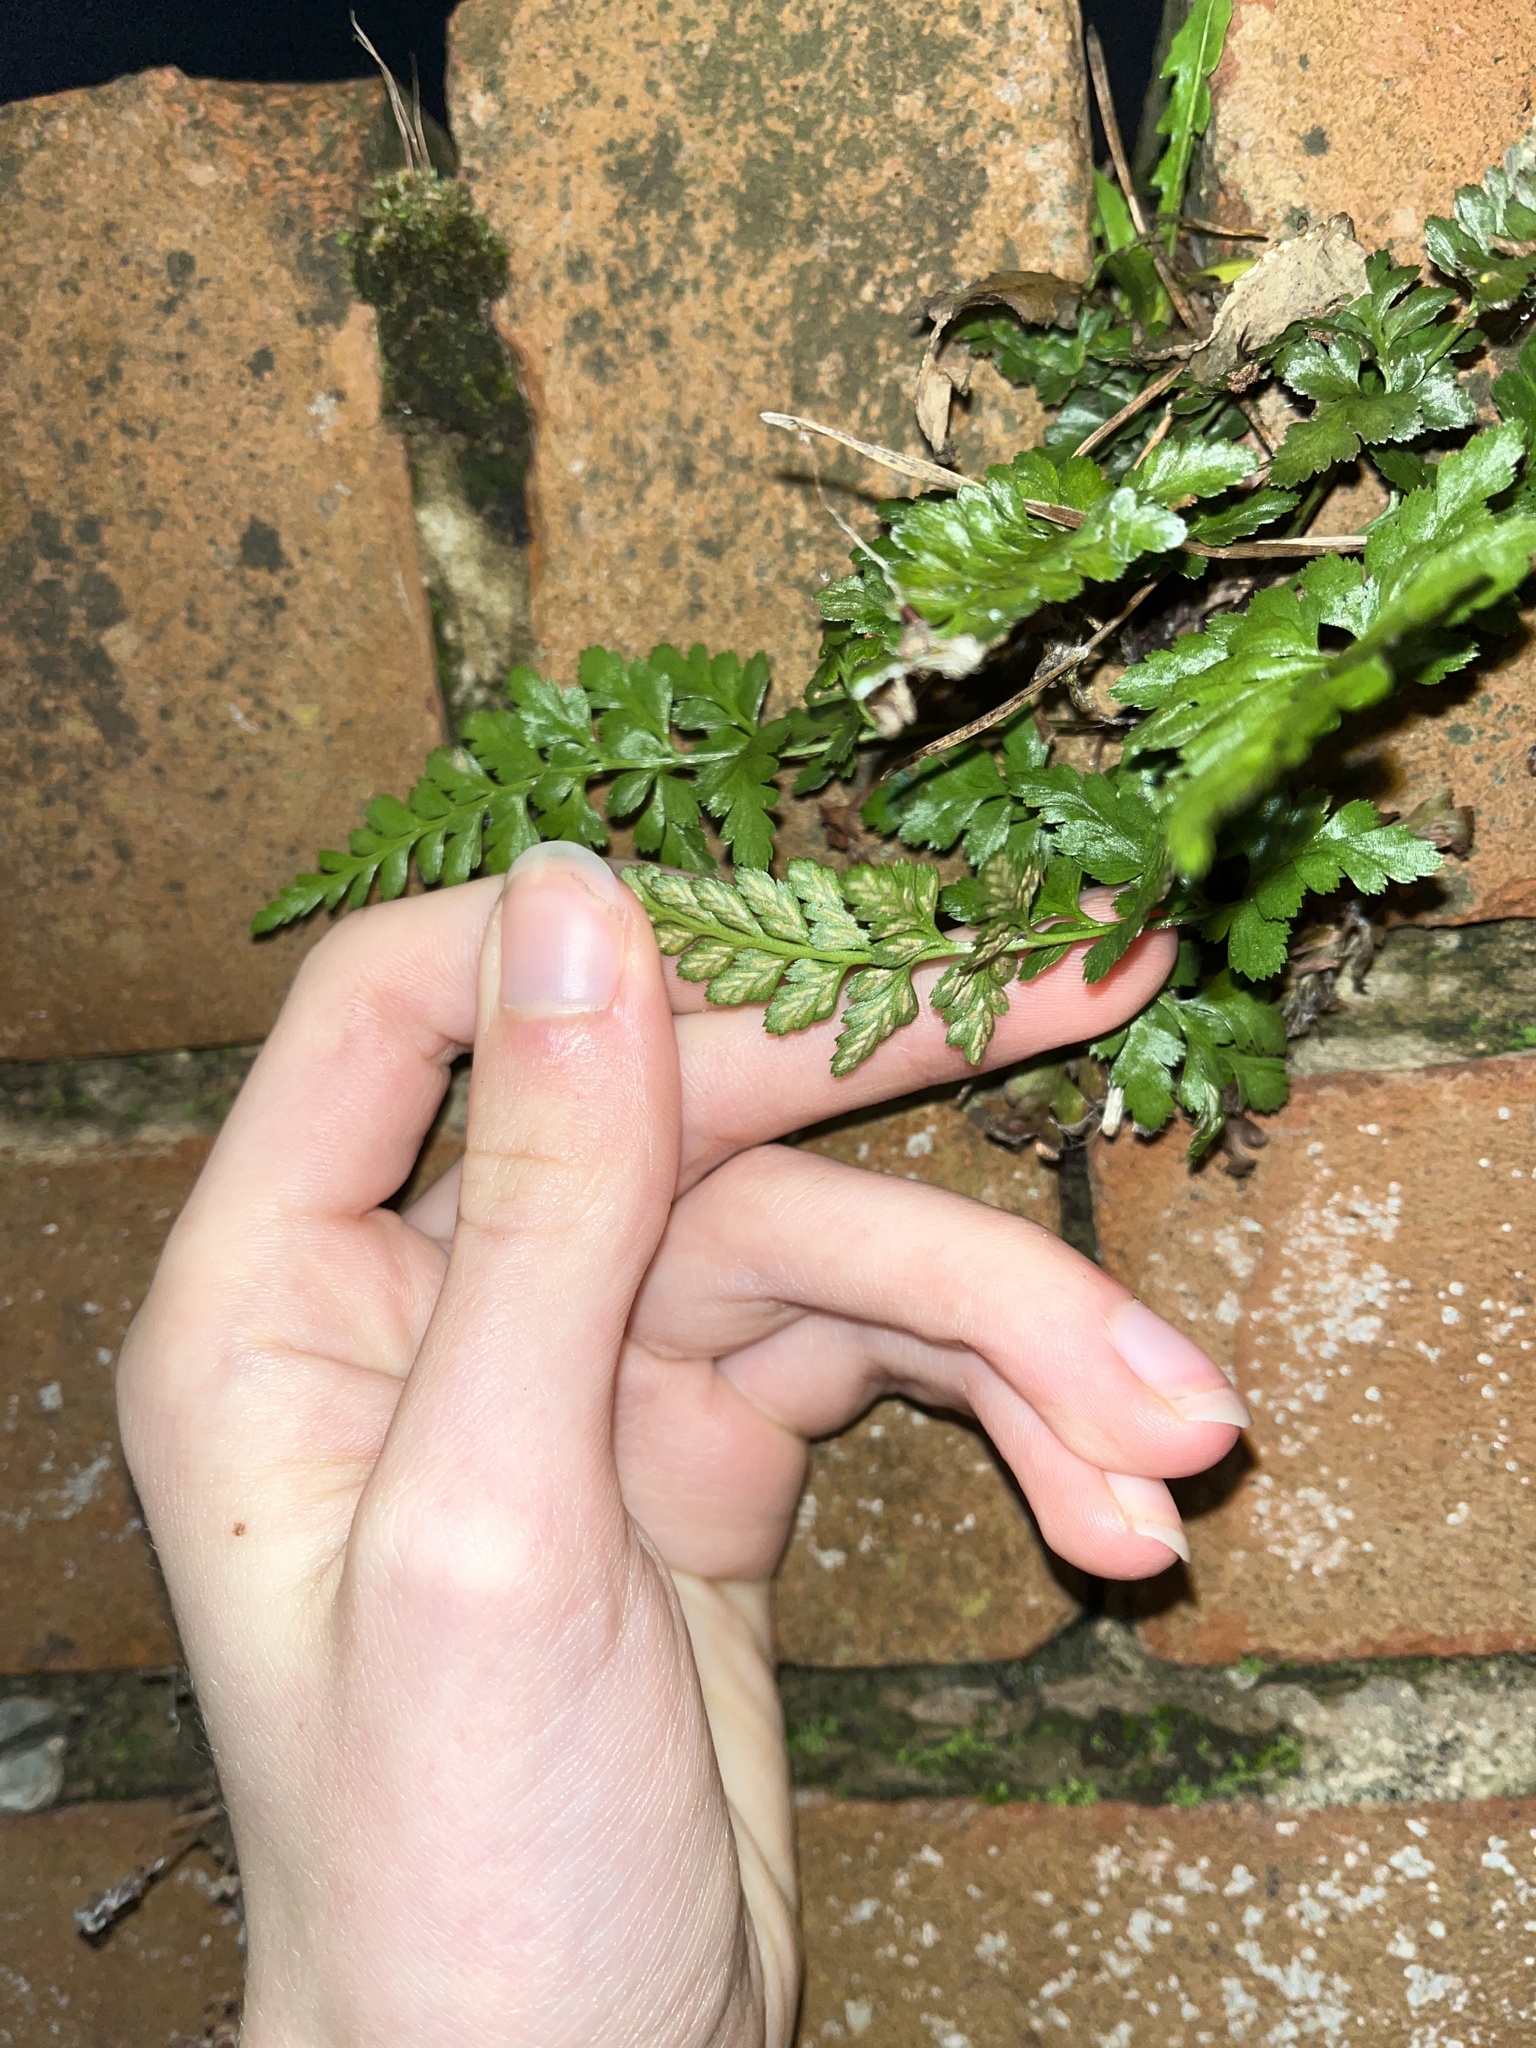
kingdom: Plantae
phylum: Tracheophyta
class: Polypodiopsida
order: Polypodiales
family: Aspleniaceae
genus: Asplenium
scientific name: Asplenium adiantum-nigrum
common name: Black spleenwort
